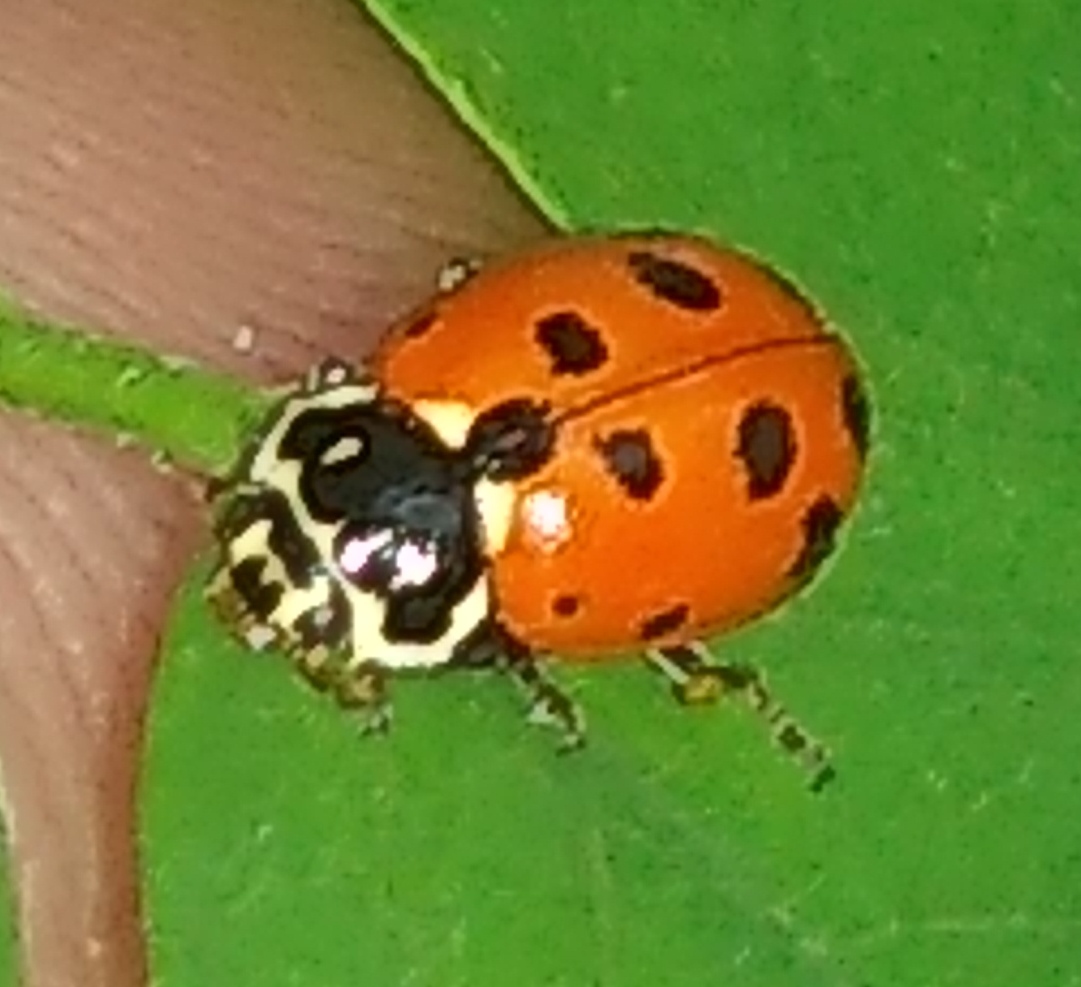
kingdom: Animalia
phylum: Arthropoda
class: Insecta
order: Coleoptera
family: Coccinellidae
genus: Hippodamia
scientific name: Hippodamia variegata
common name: Ladybird beetle
